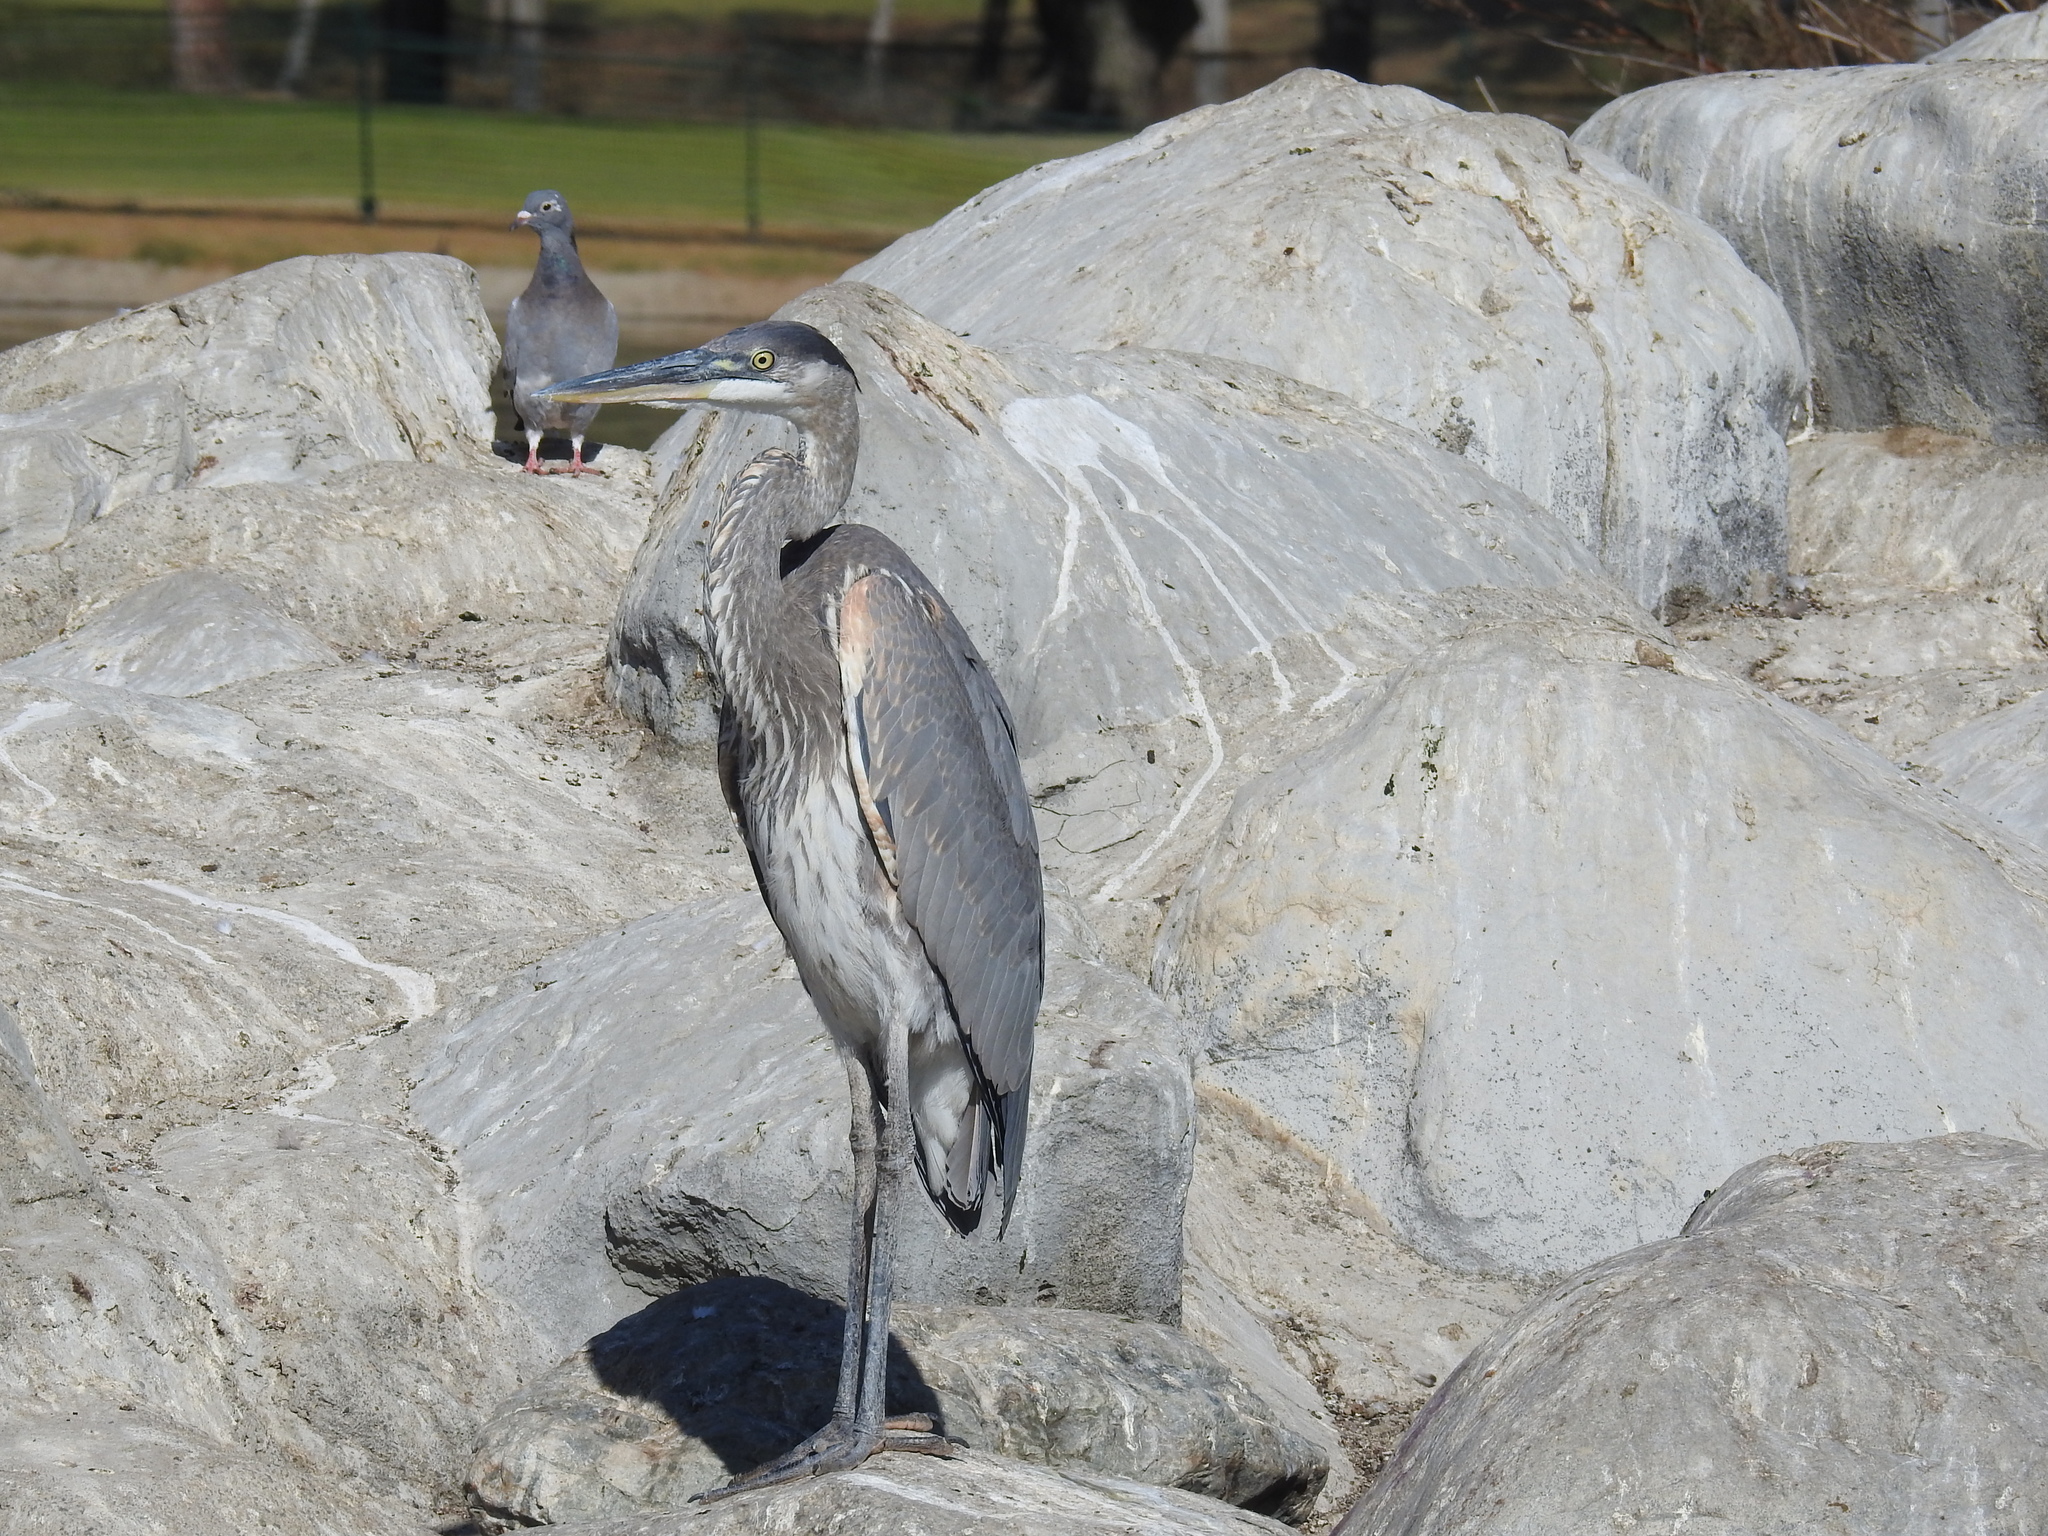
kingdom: Animalia
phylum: Chordata
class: Aves
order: Pelecaniformes
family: Ardeidae
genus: Ardea
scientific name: Ardea herodias
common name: Great blue heron
